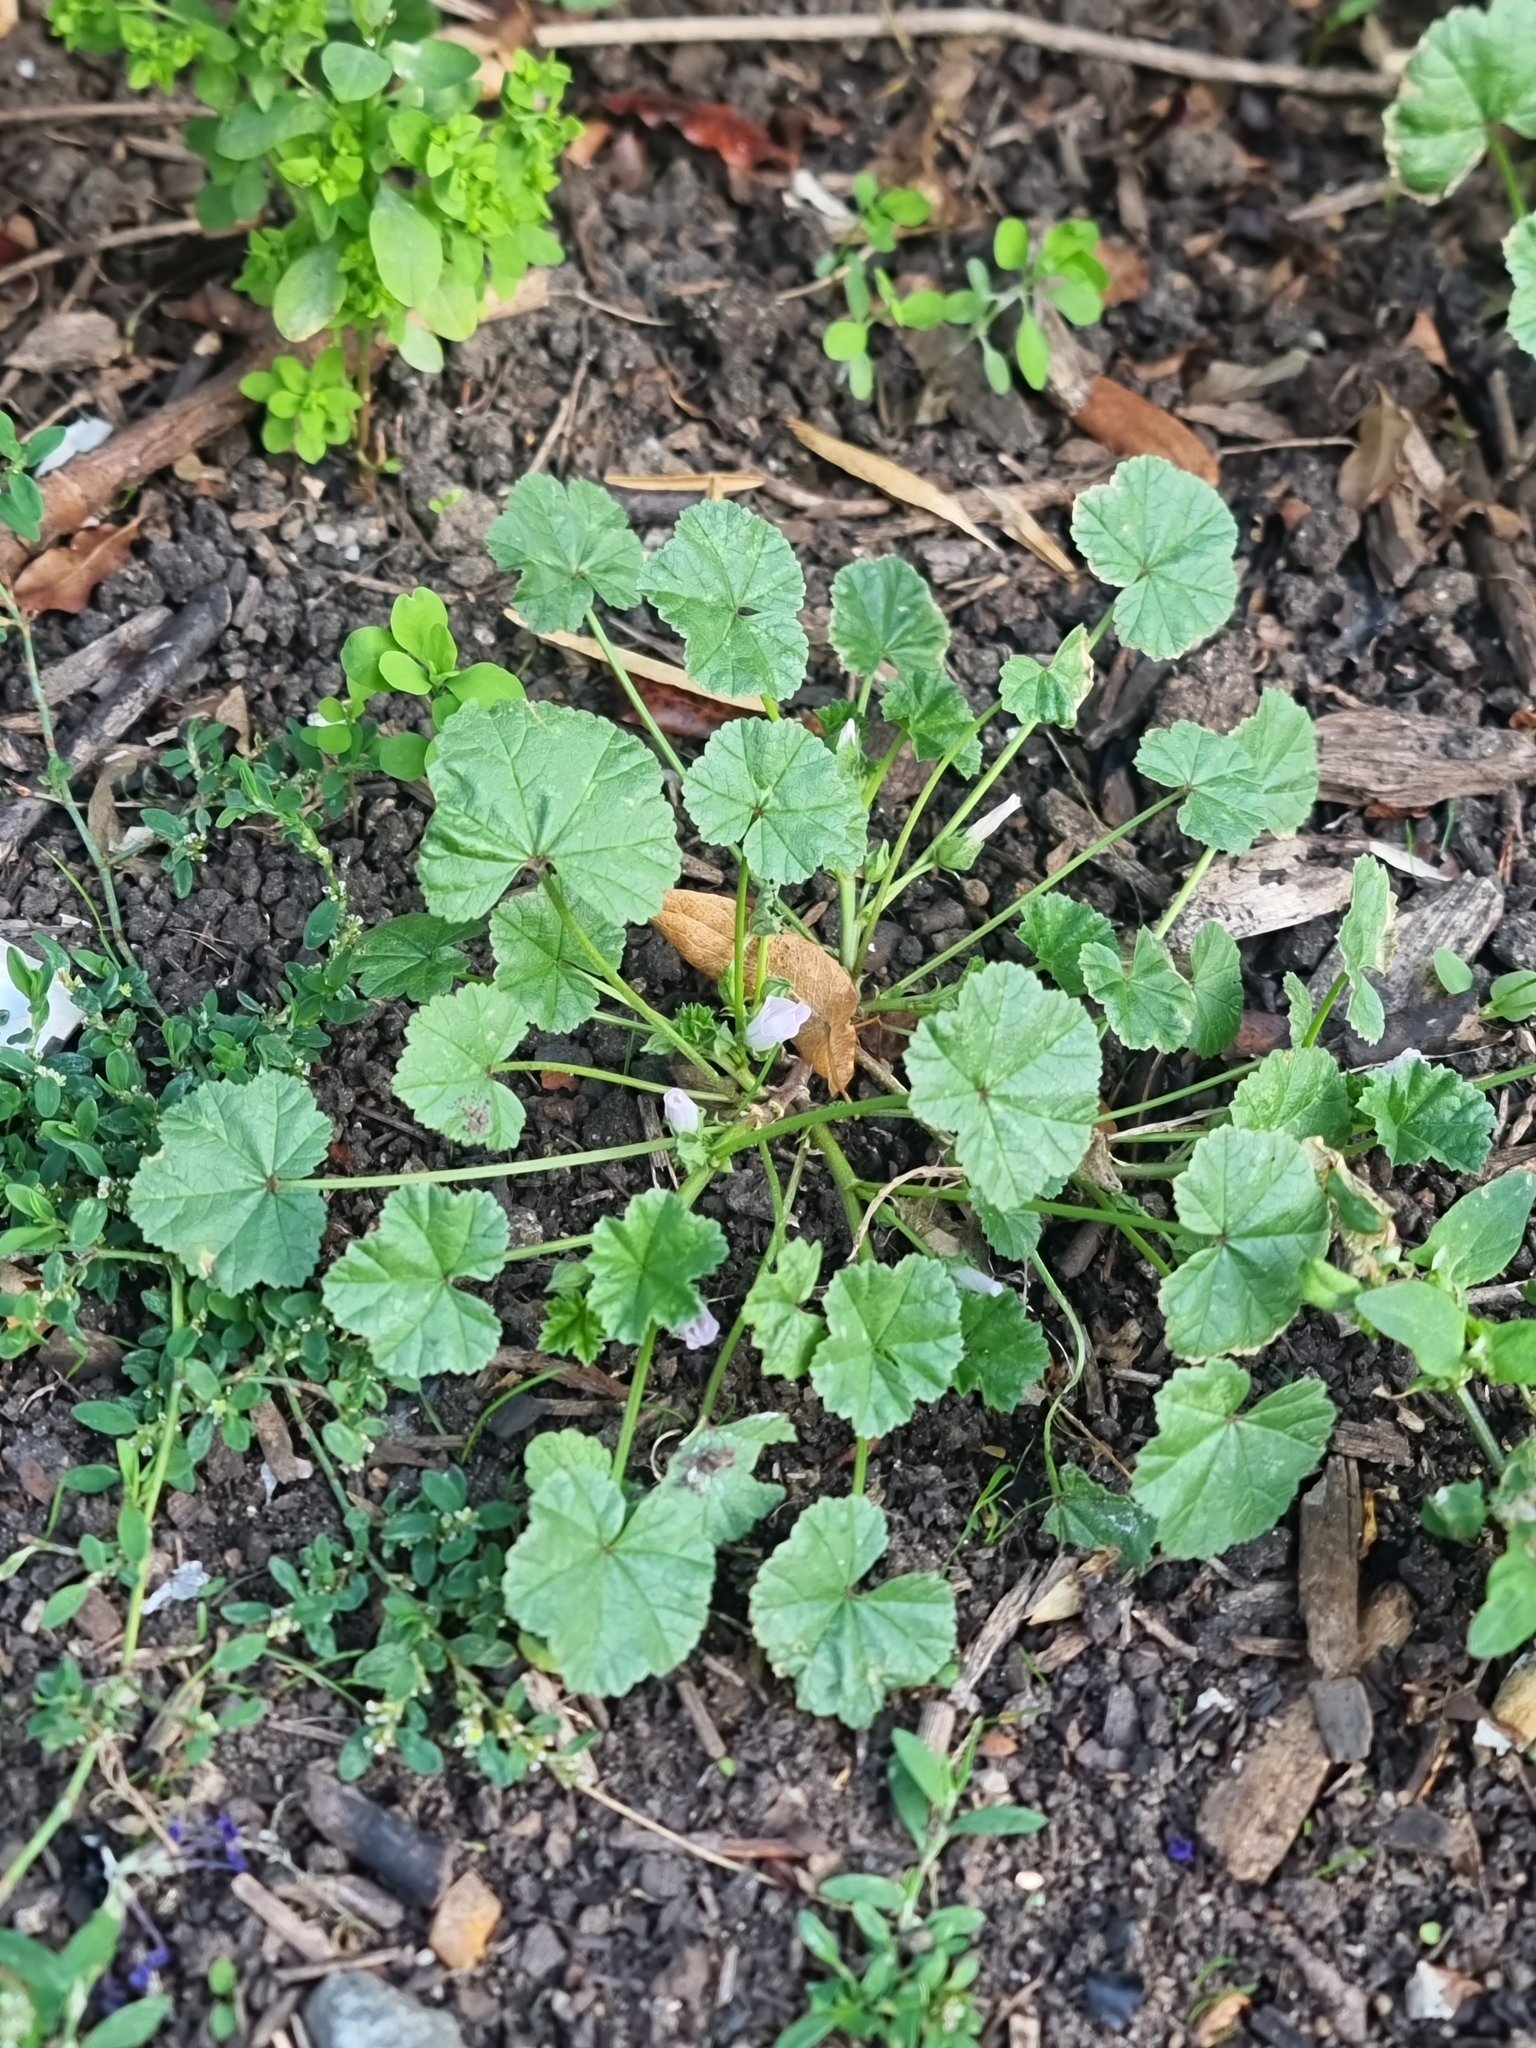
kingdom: Plantae
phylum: Tracheophyta
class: Magnoliopsida
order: Malvales
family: Malvaceae
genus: Malva
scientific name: Malva neglecta
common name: Common mallow
